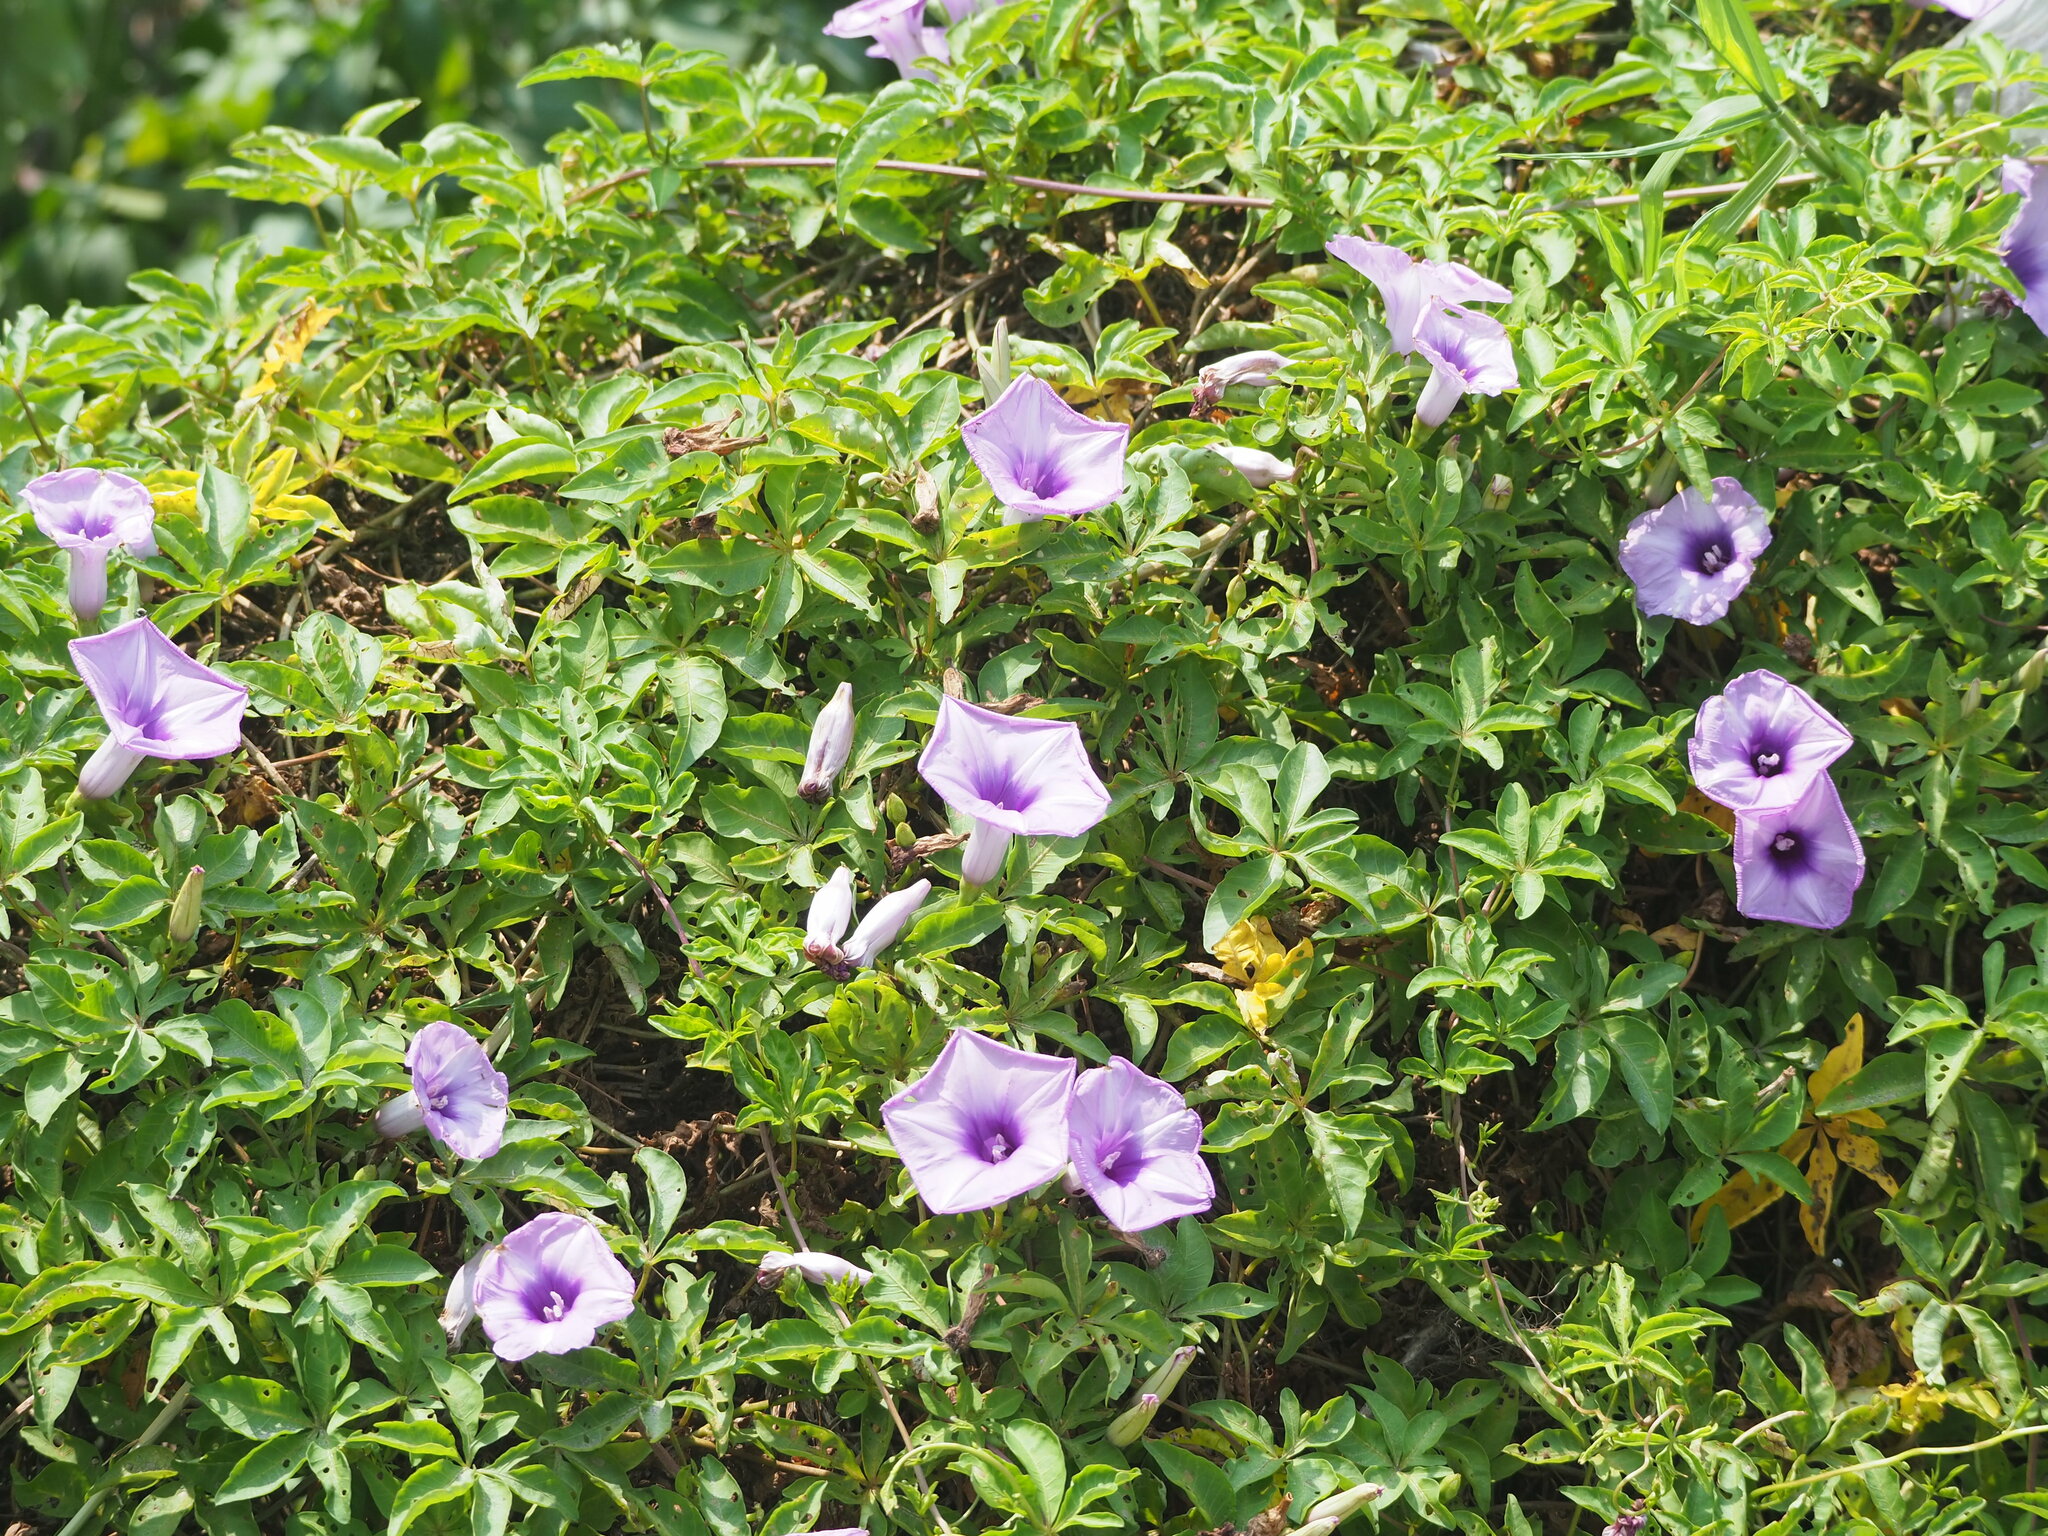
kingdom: Plantae
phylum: Tracheophyta
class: Magnoliopsida
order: Solanales
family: Convolvulaceae
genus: Ipomoea
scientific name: Ipomoea cairica
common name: Mile a minute vine
